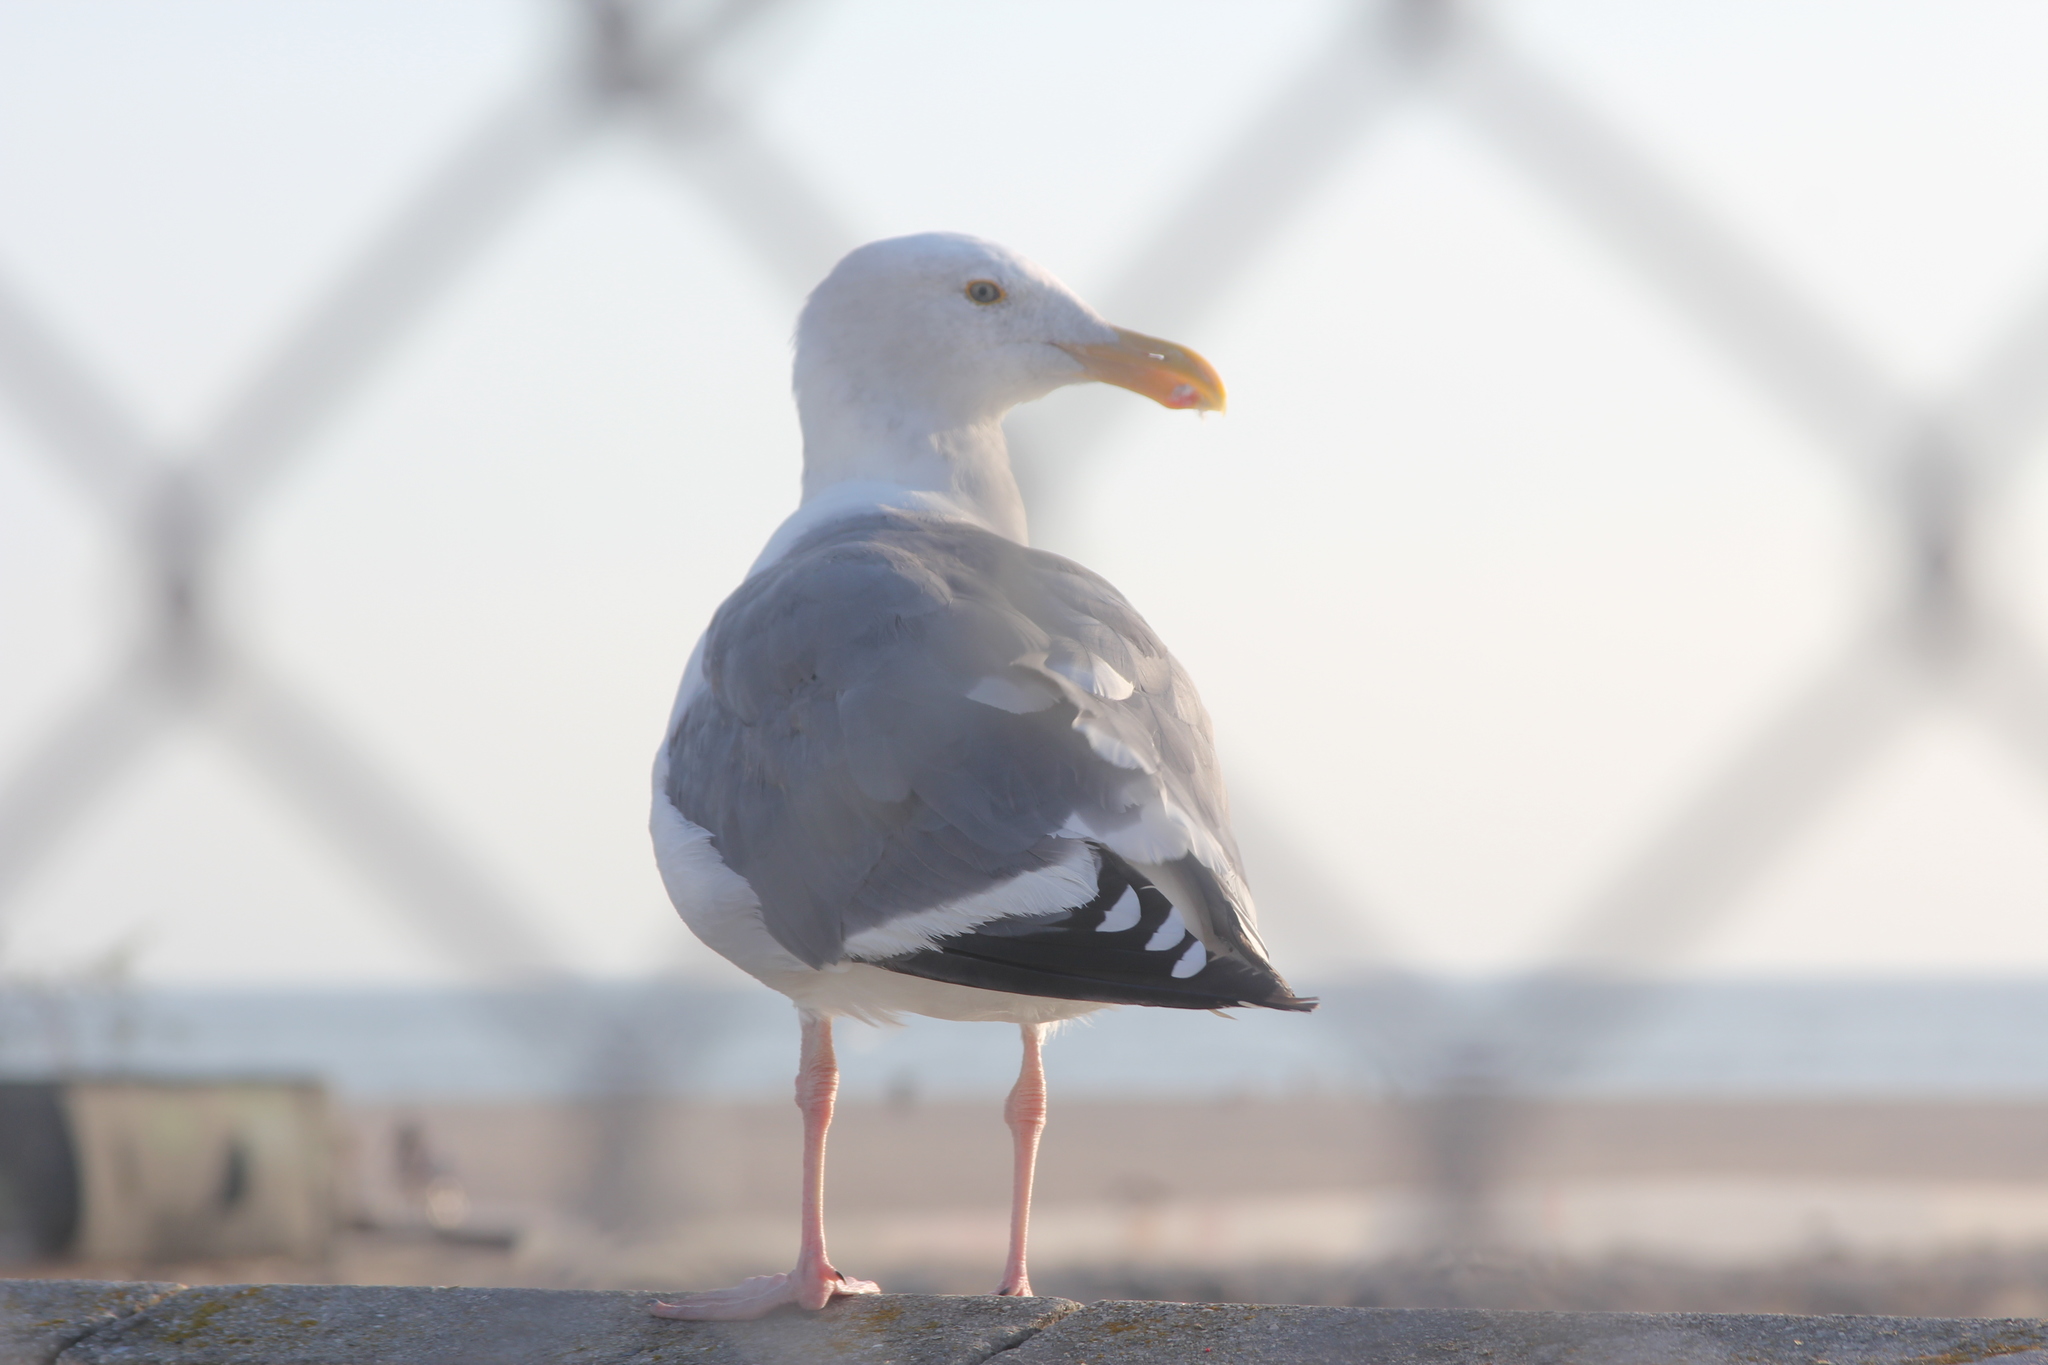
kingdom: Animalia
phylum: Chordata
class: Aves
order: Charadriiformes
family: Laridae
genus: Larus
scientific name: Larus occidentalis
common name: Western gull
